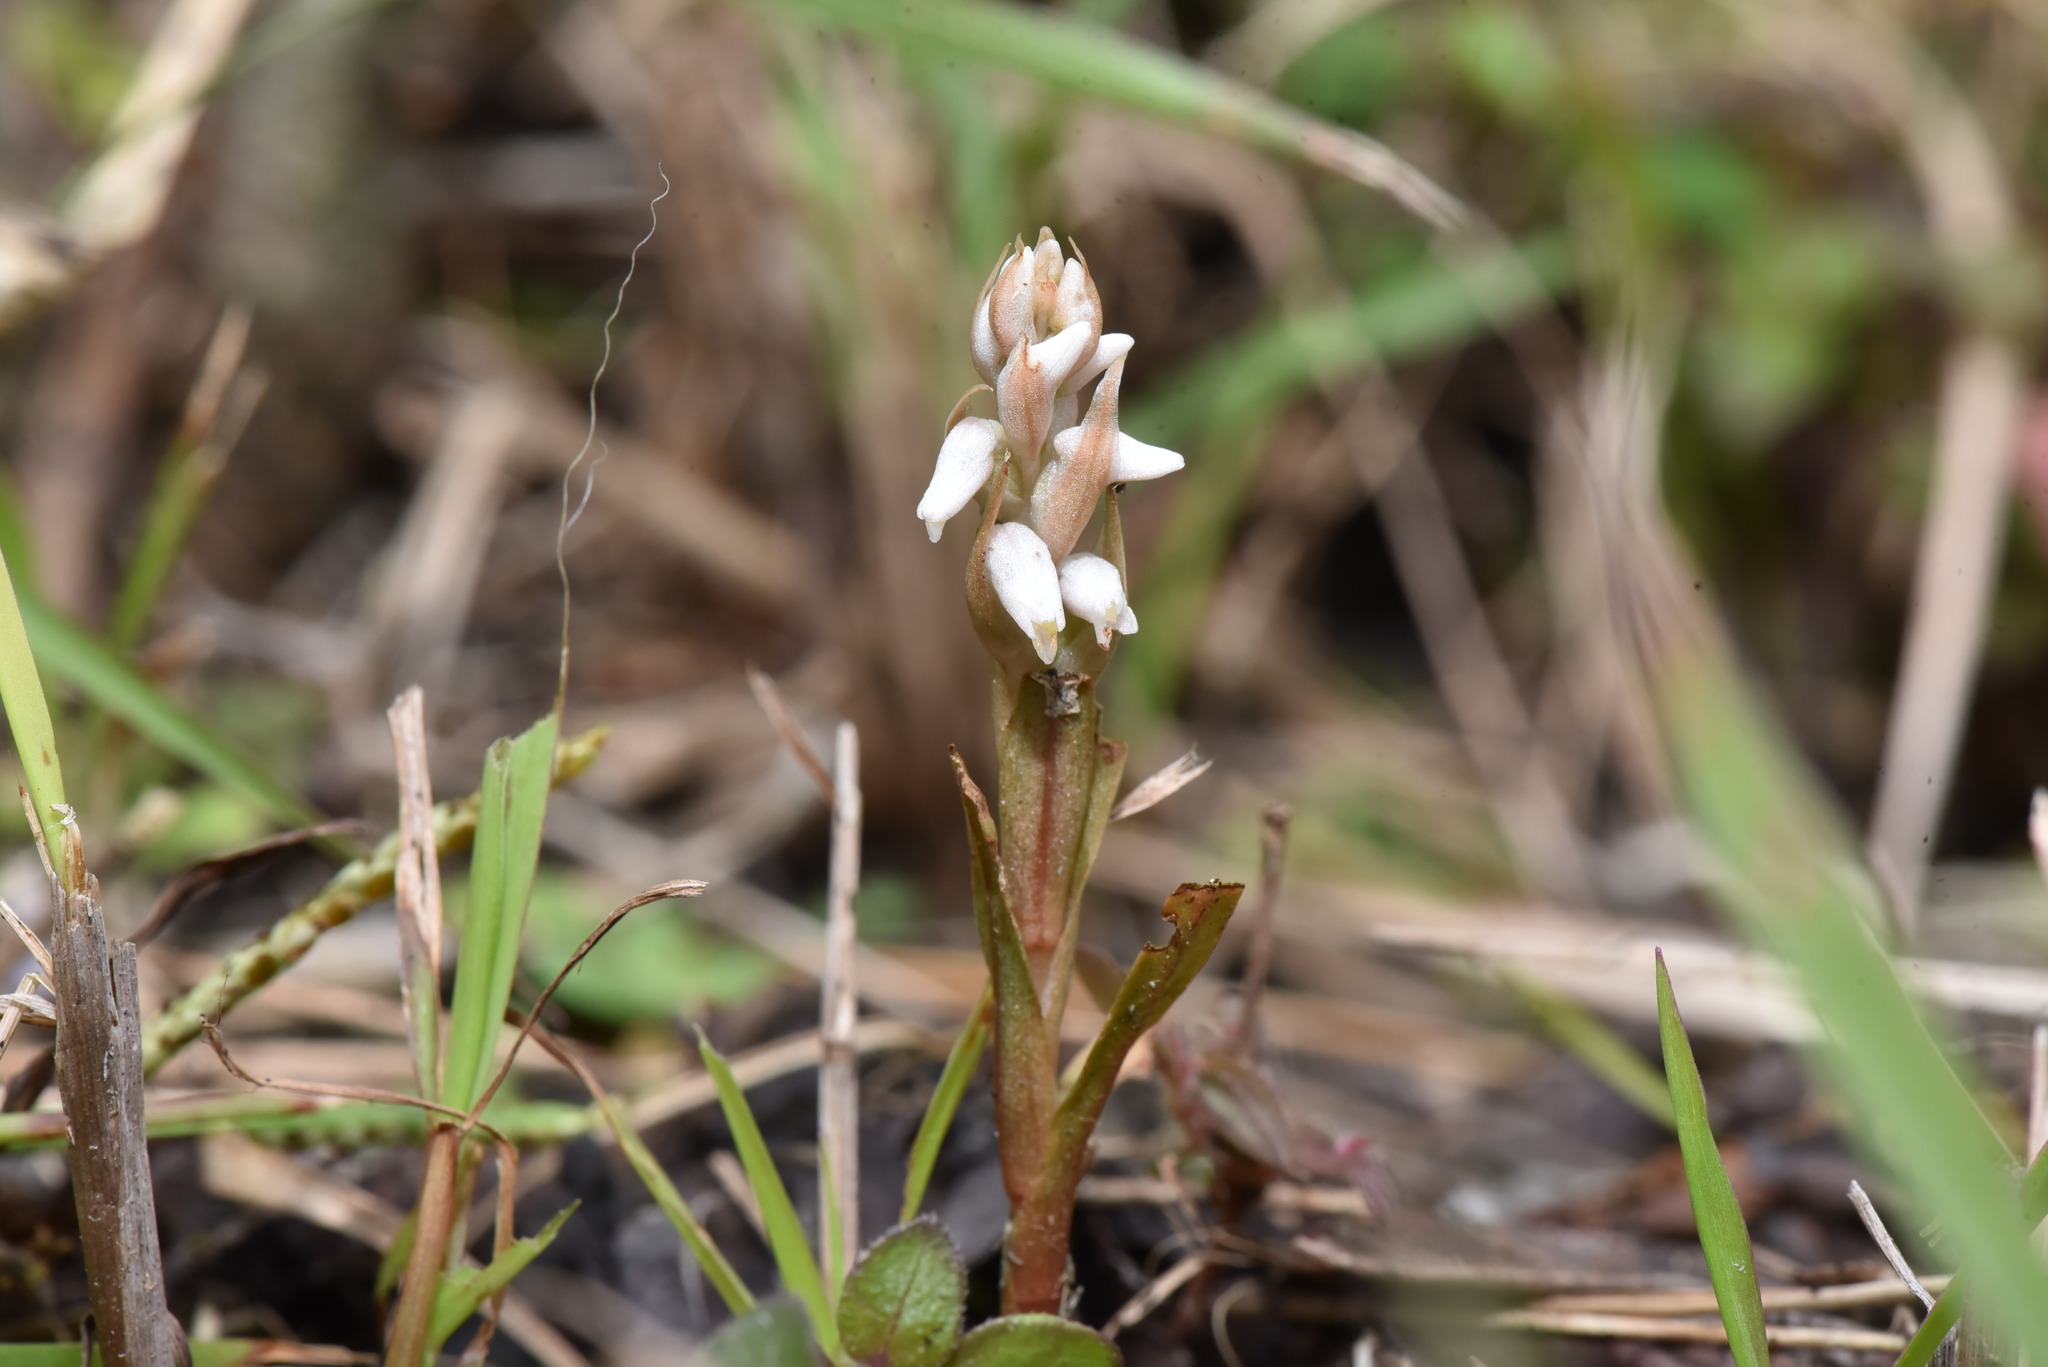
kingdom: Plantae
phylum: Tracheophyta
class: Liliopsida
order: Asparagales
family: Orchidaceae
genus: Zeuxine
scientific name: Zeuxine strateumatica
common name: Soldier's orchid
